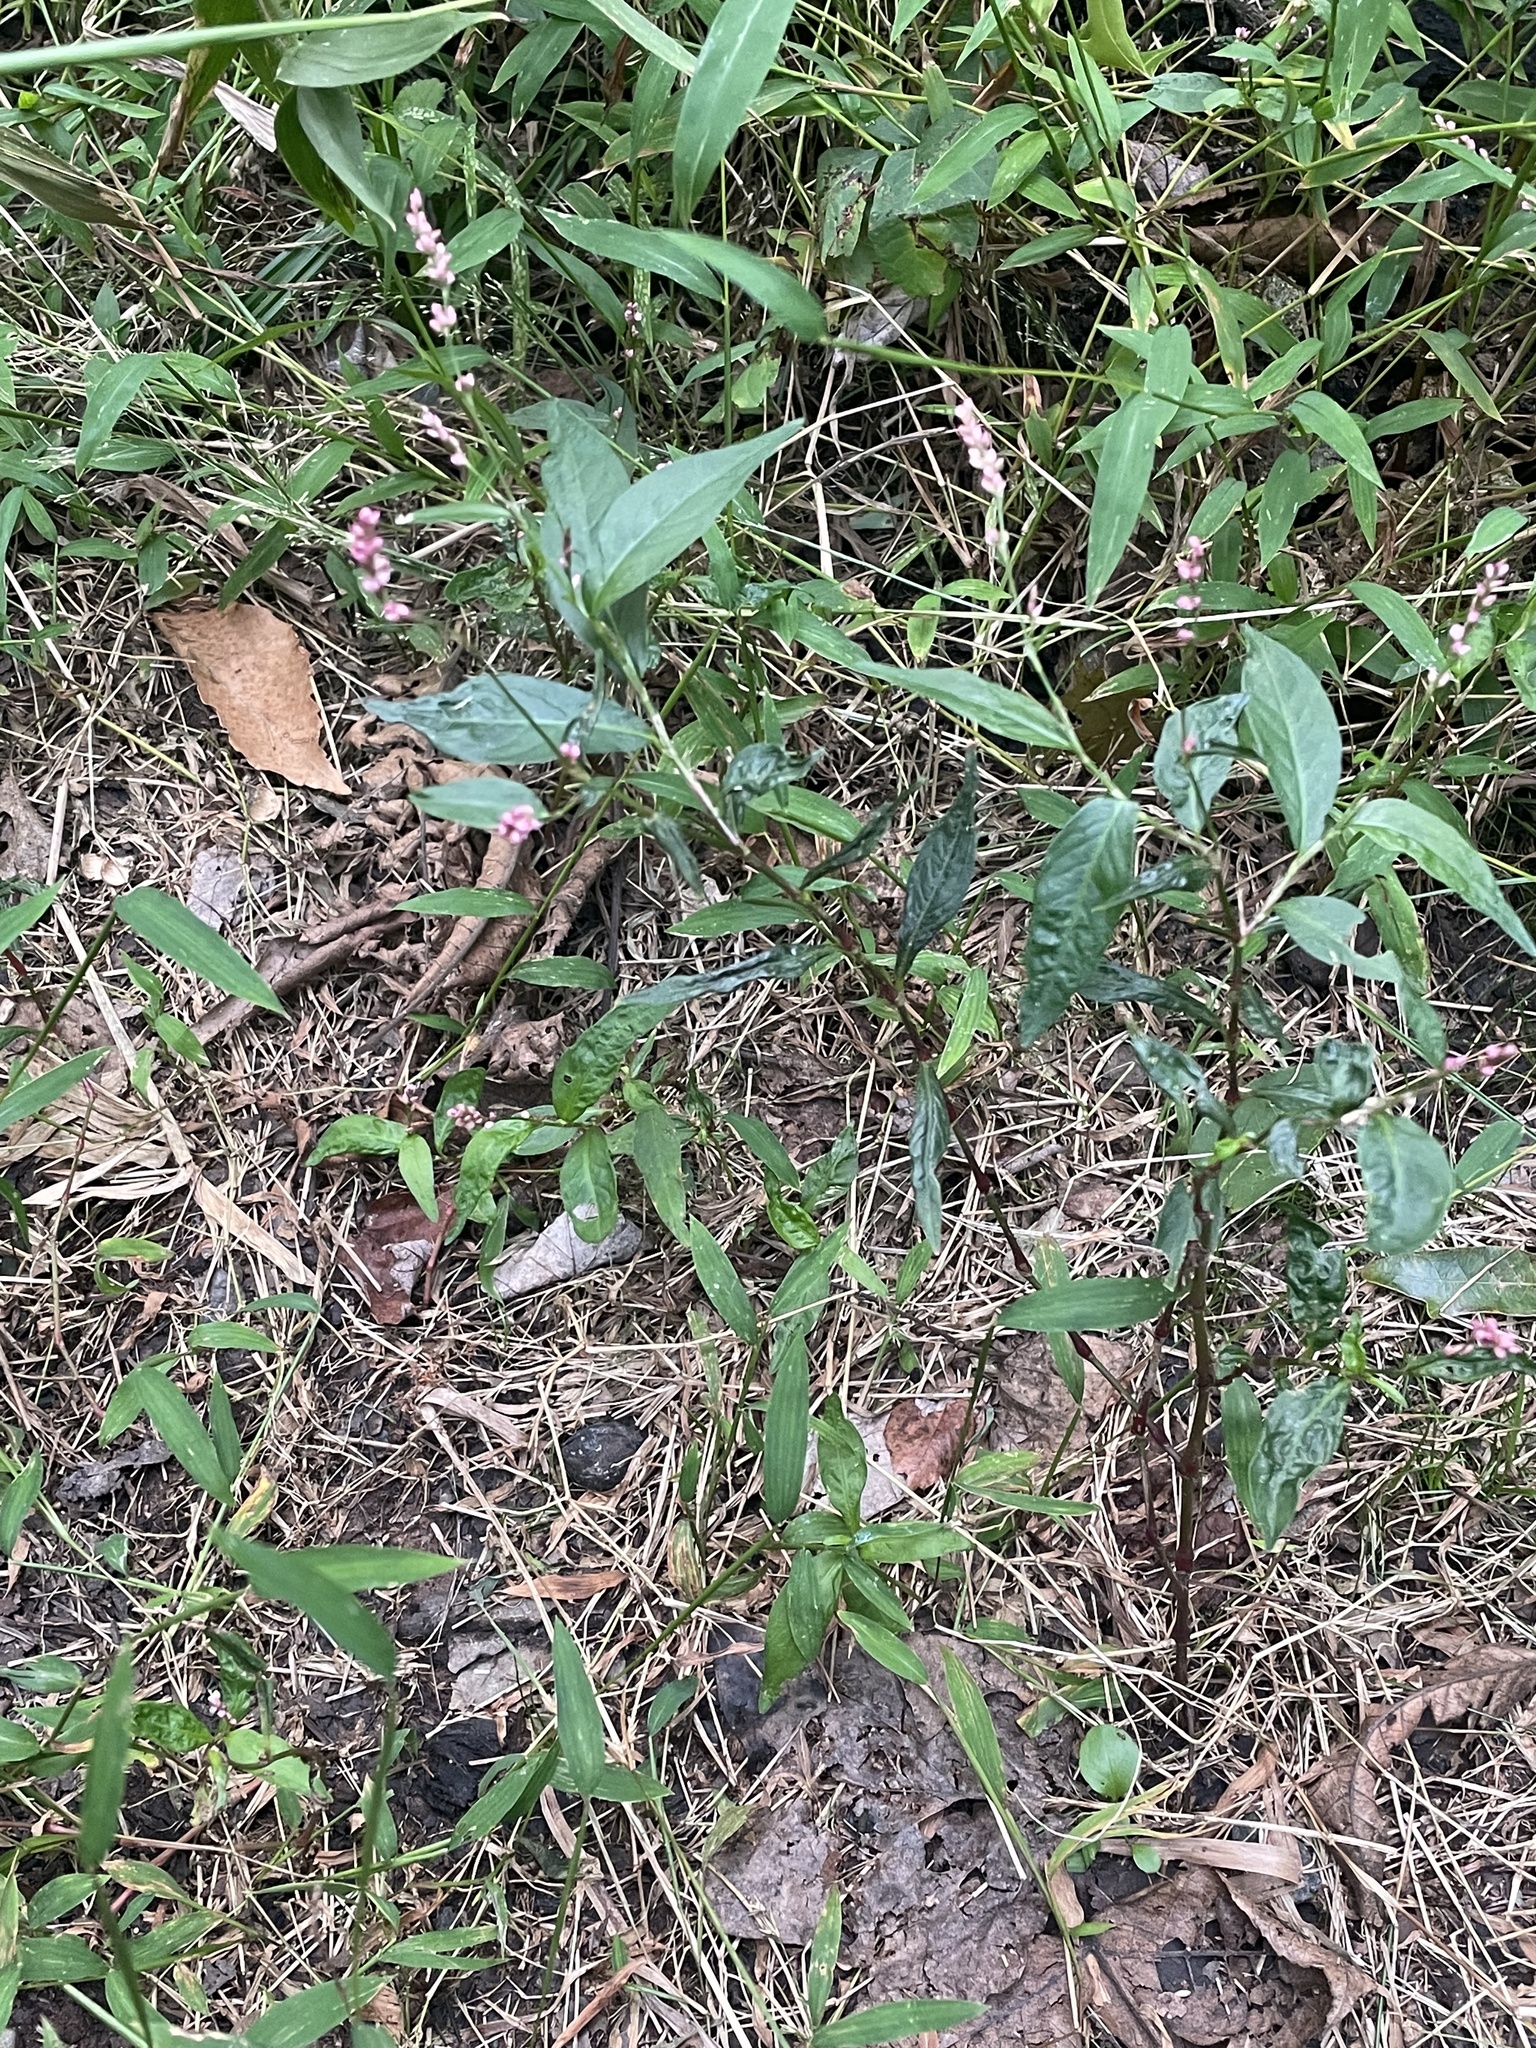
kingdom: Plantae
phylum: Tracheophyta
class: Magnoliopsida
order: Caryophyllales
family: Polygonaceae
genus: Persicaria
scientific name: Persicaria longiseta
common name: Bristly lady's-thumb
